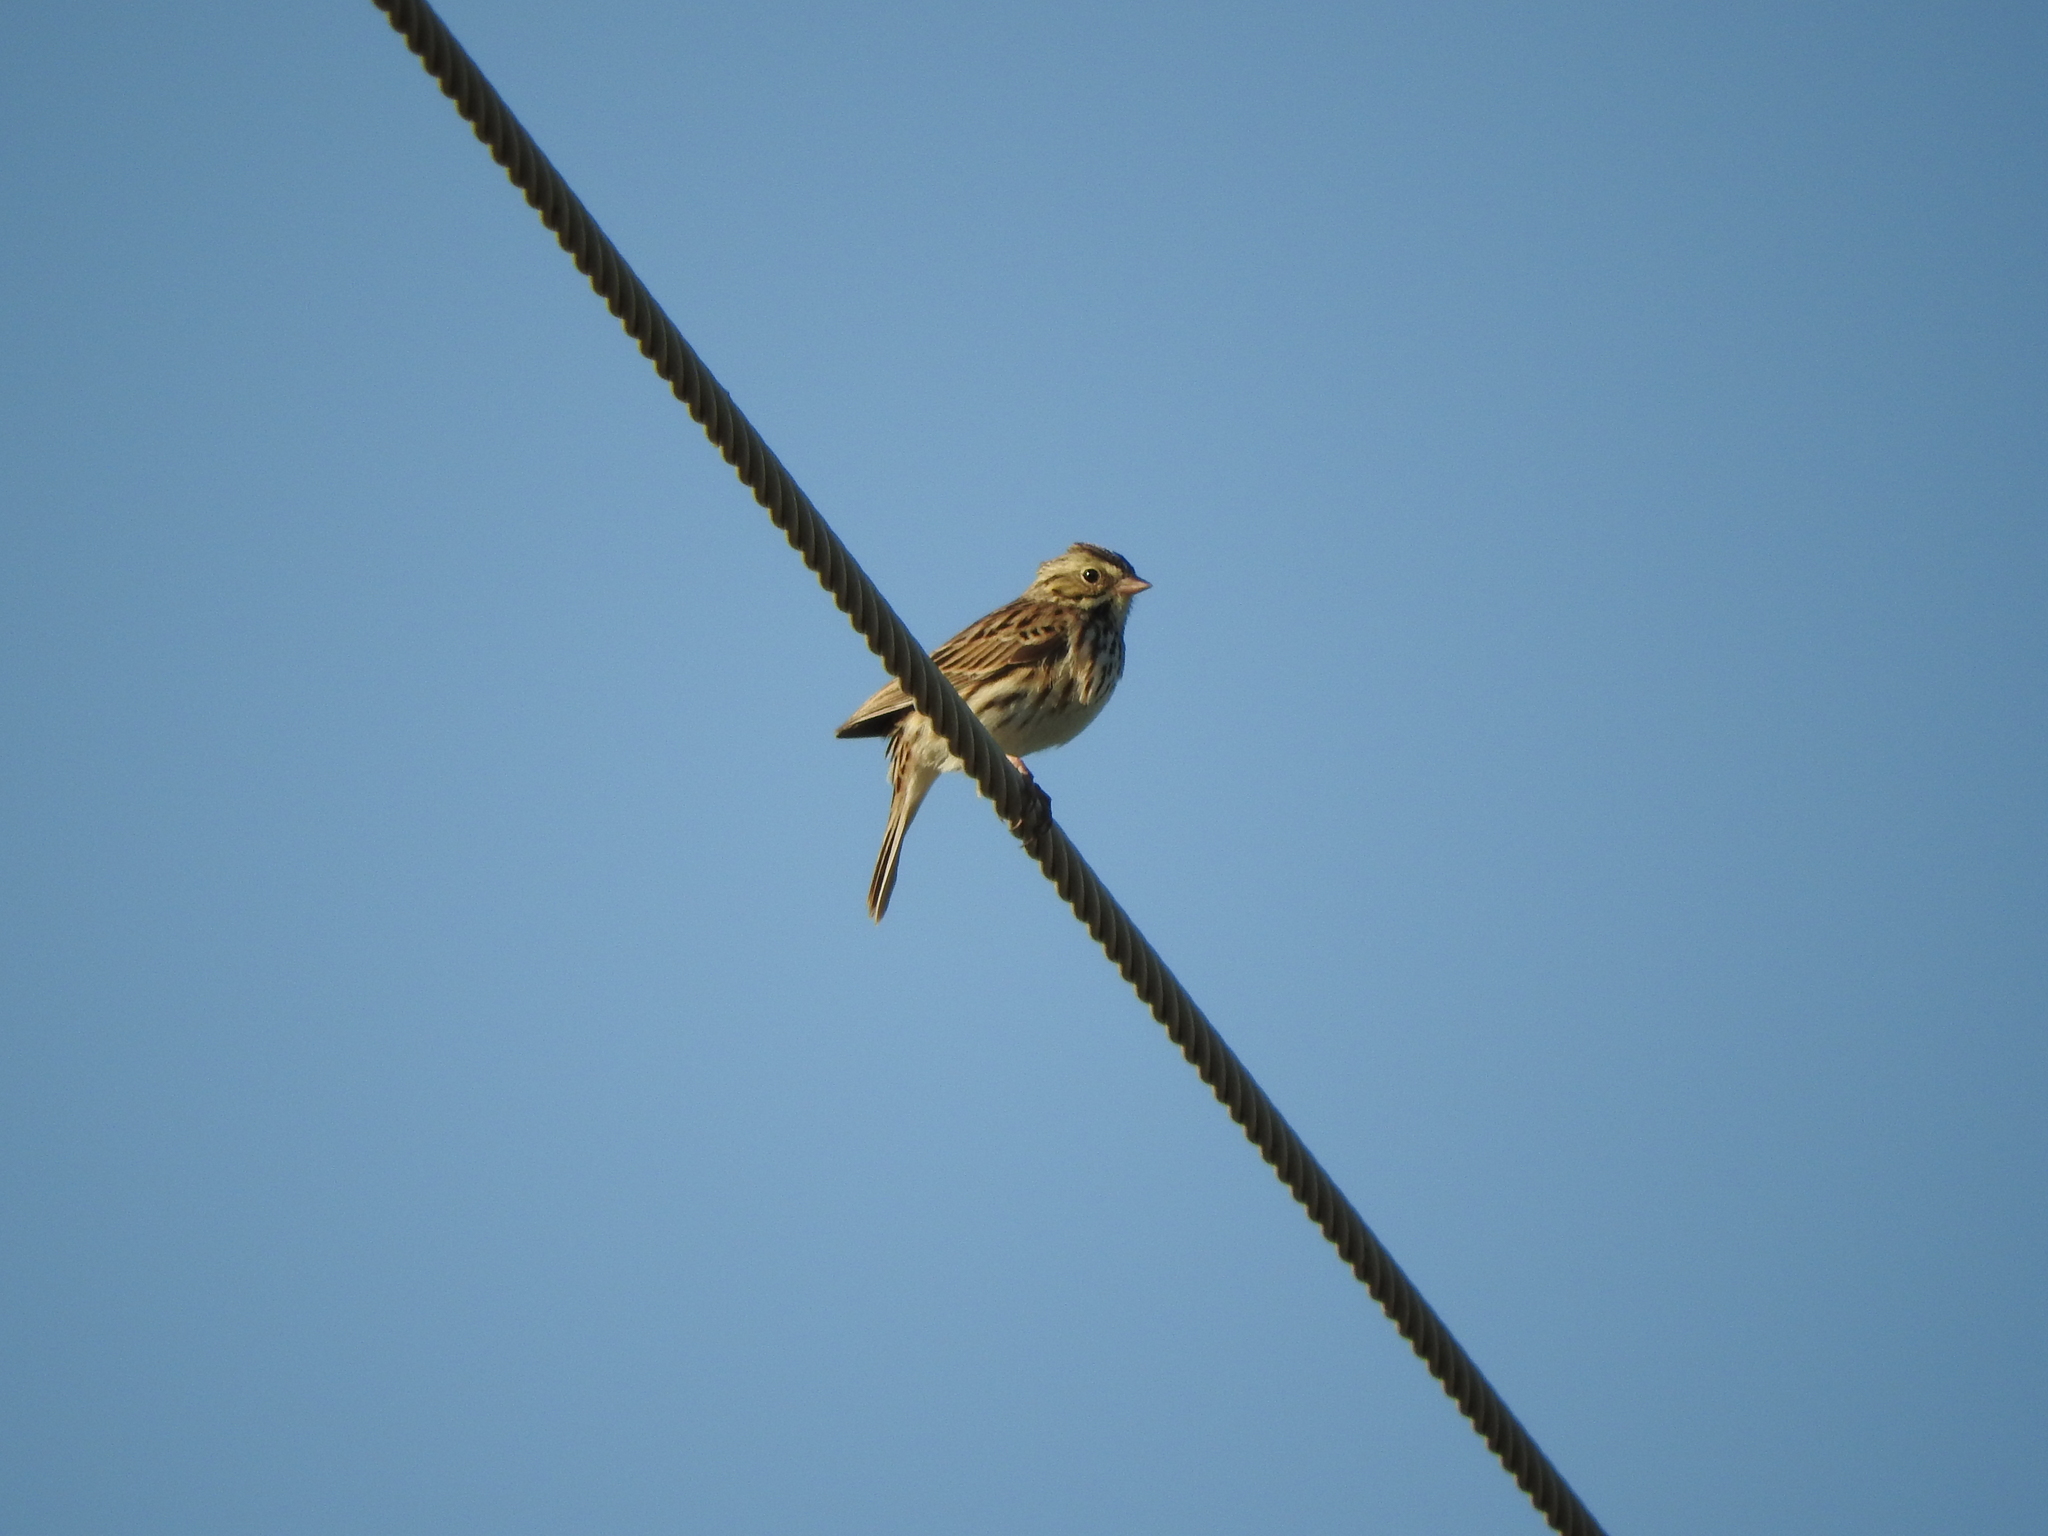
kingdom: Animalia
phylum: Chordata
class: Aves
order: Passeriformes
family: Passerellidae
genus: Passerculus
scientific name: Passerculus sandwichensis
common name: Savannah sparrow
